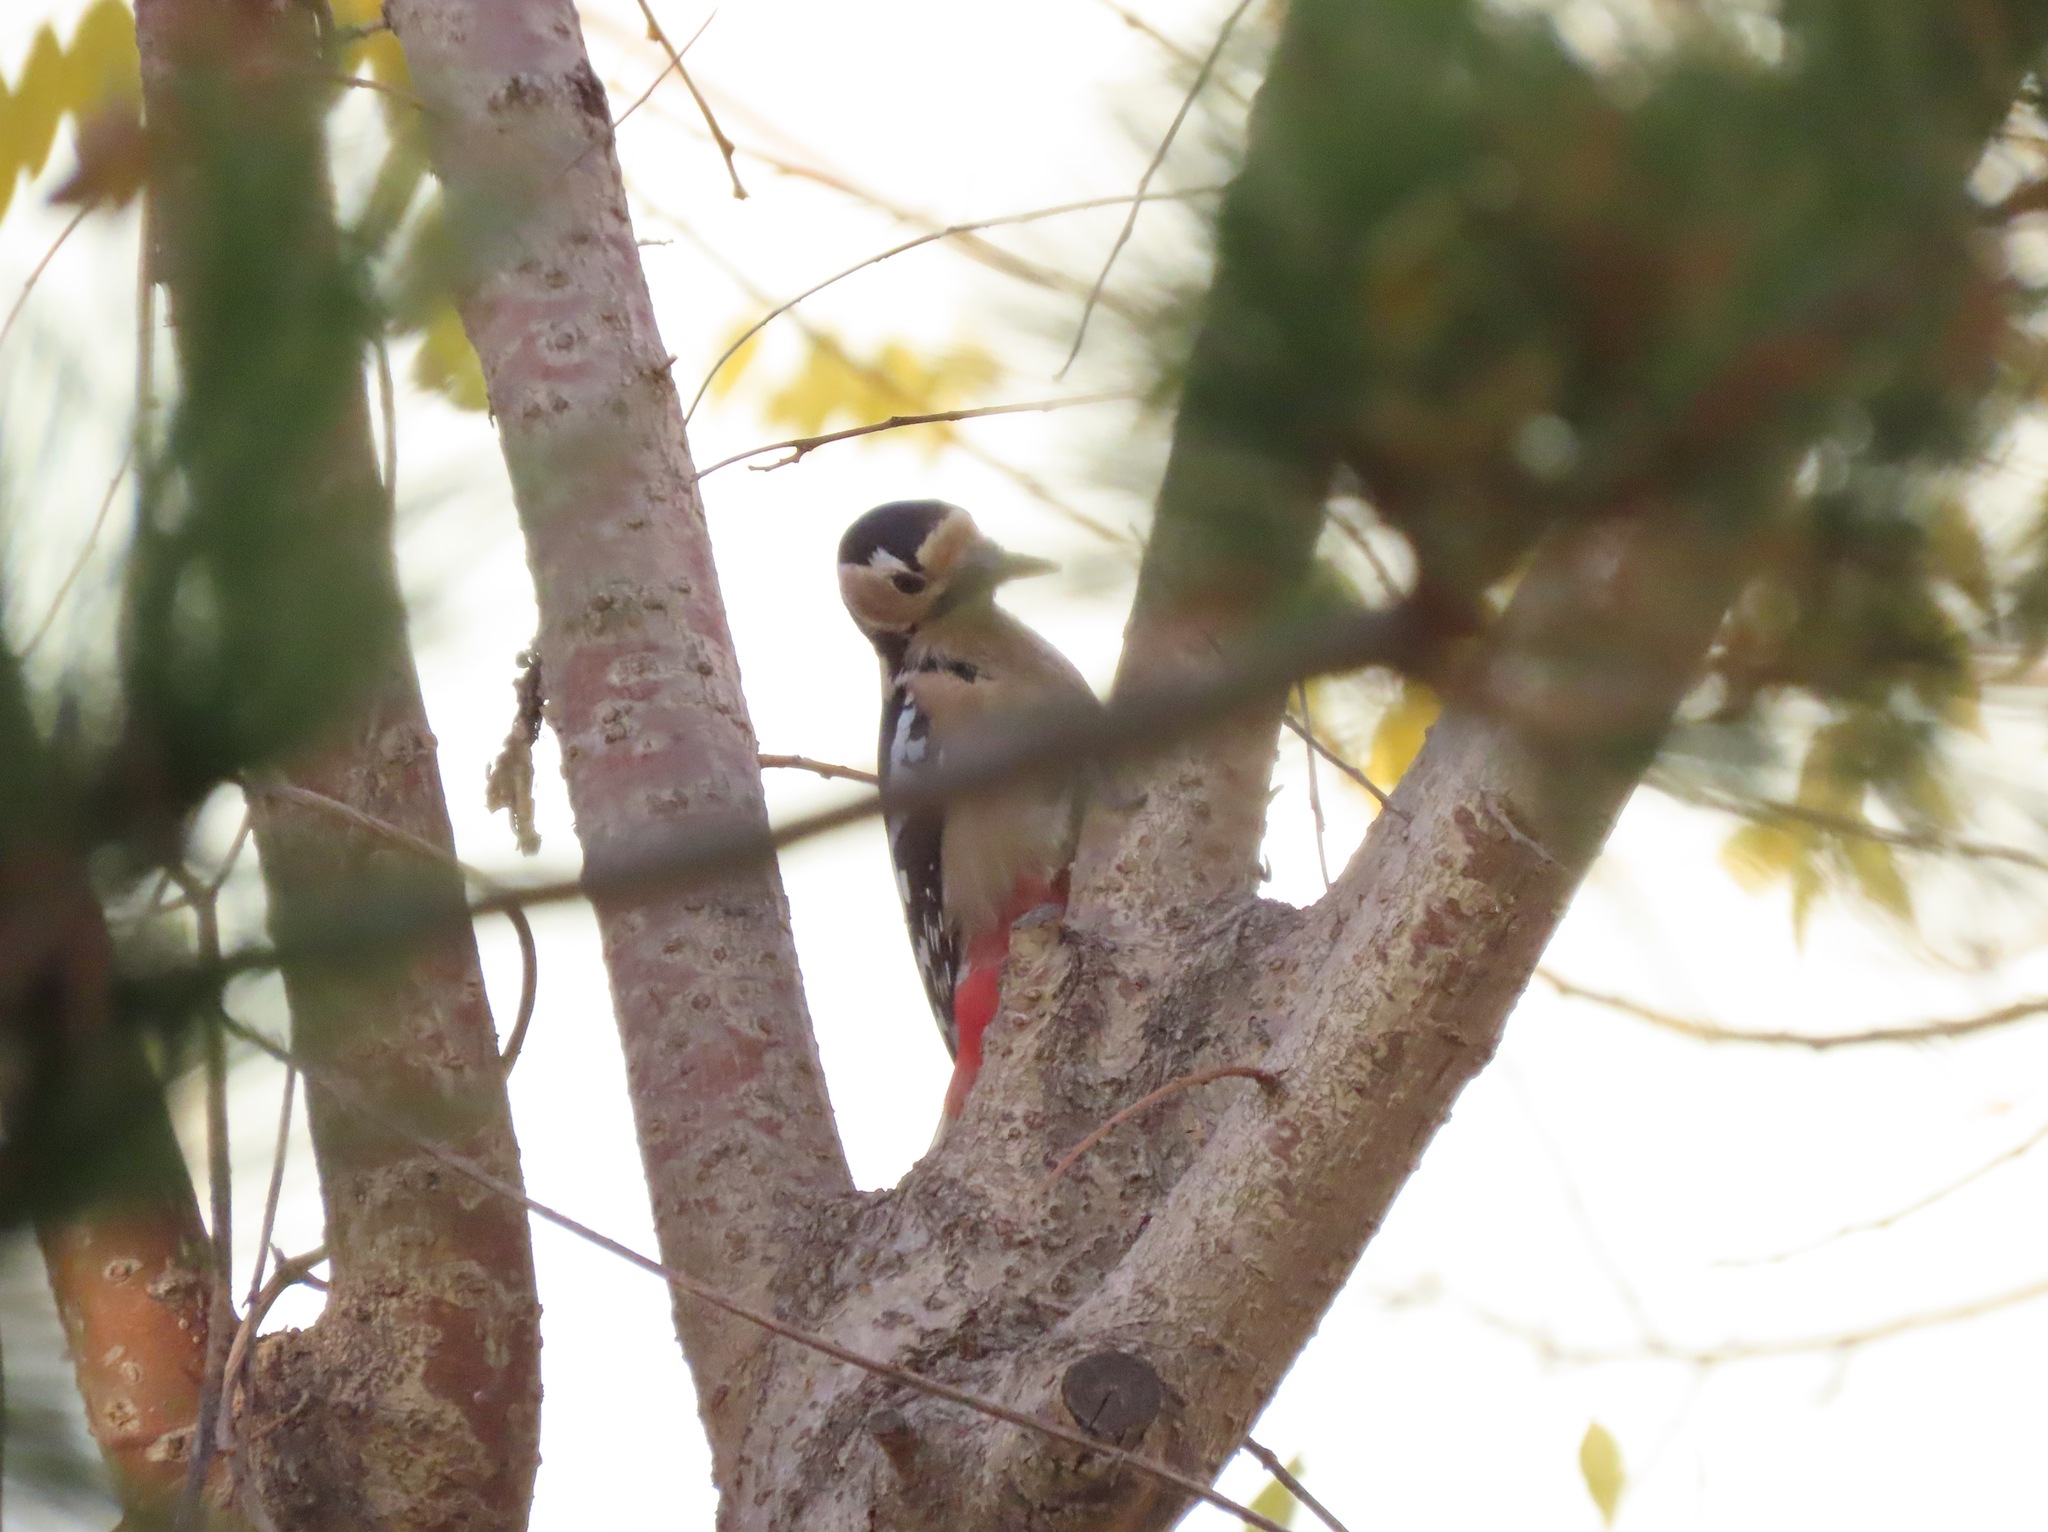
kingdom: Animalia
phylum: Chordata
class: Aves
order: Piciformes
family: Picidae
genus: Dendrocopos
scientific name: Dendrocopos major
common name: Great spotted woodpecker
